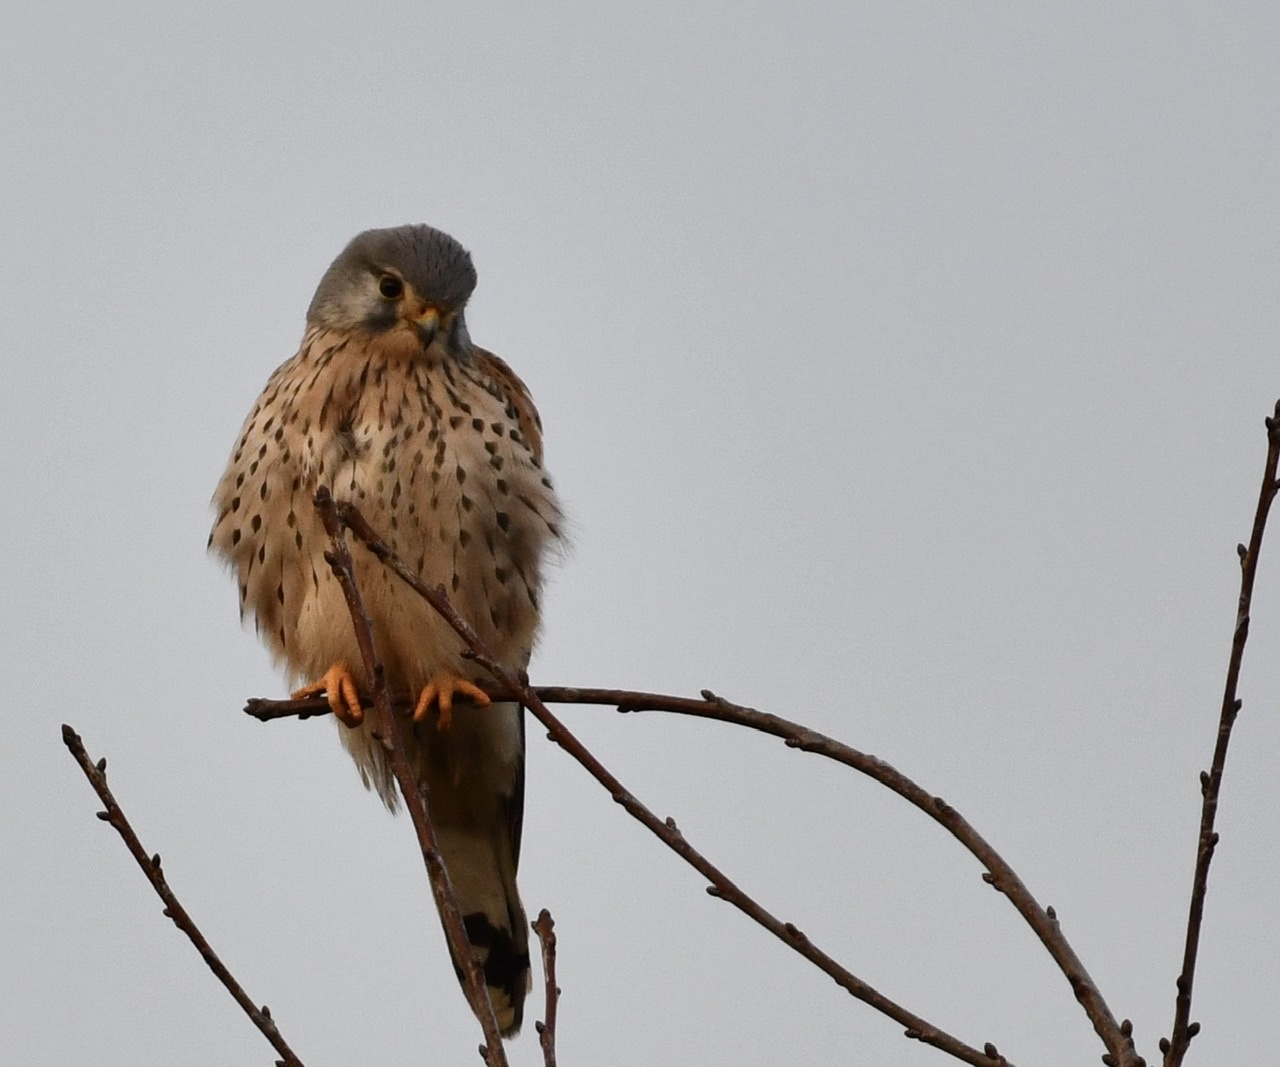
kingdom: Animalia
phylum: Chordata
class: Aves
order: Falconiformes
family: Falconidae
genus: Falco
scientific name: Falco tinnunculus
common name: Common kestrel
